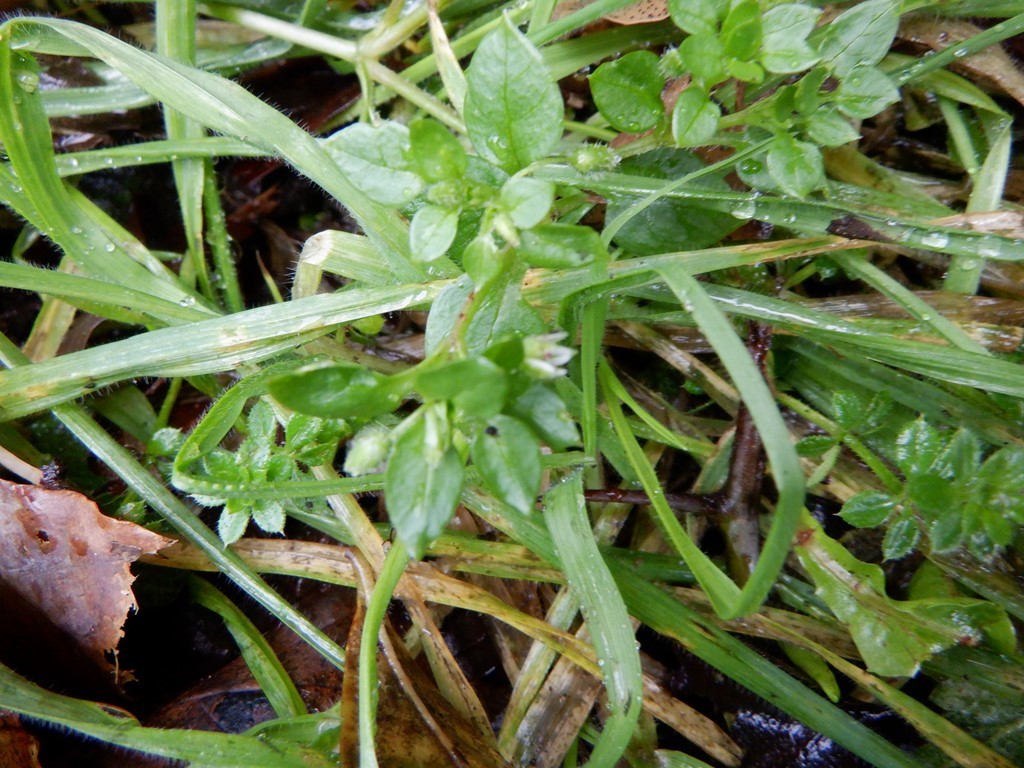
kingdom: Plantae
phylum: Tracheophyta
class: Magnoliopsida
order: Caryophyllales
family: Caryophyllaceae
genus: Stellaria
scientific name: Stellaria media
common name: Common chickweed
